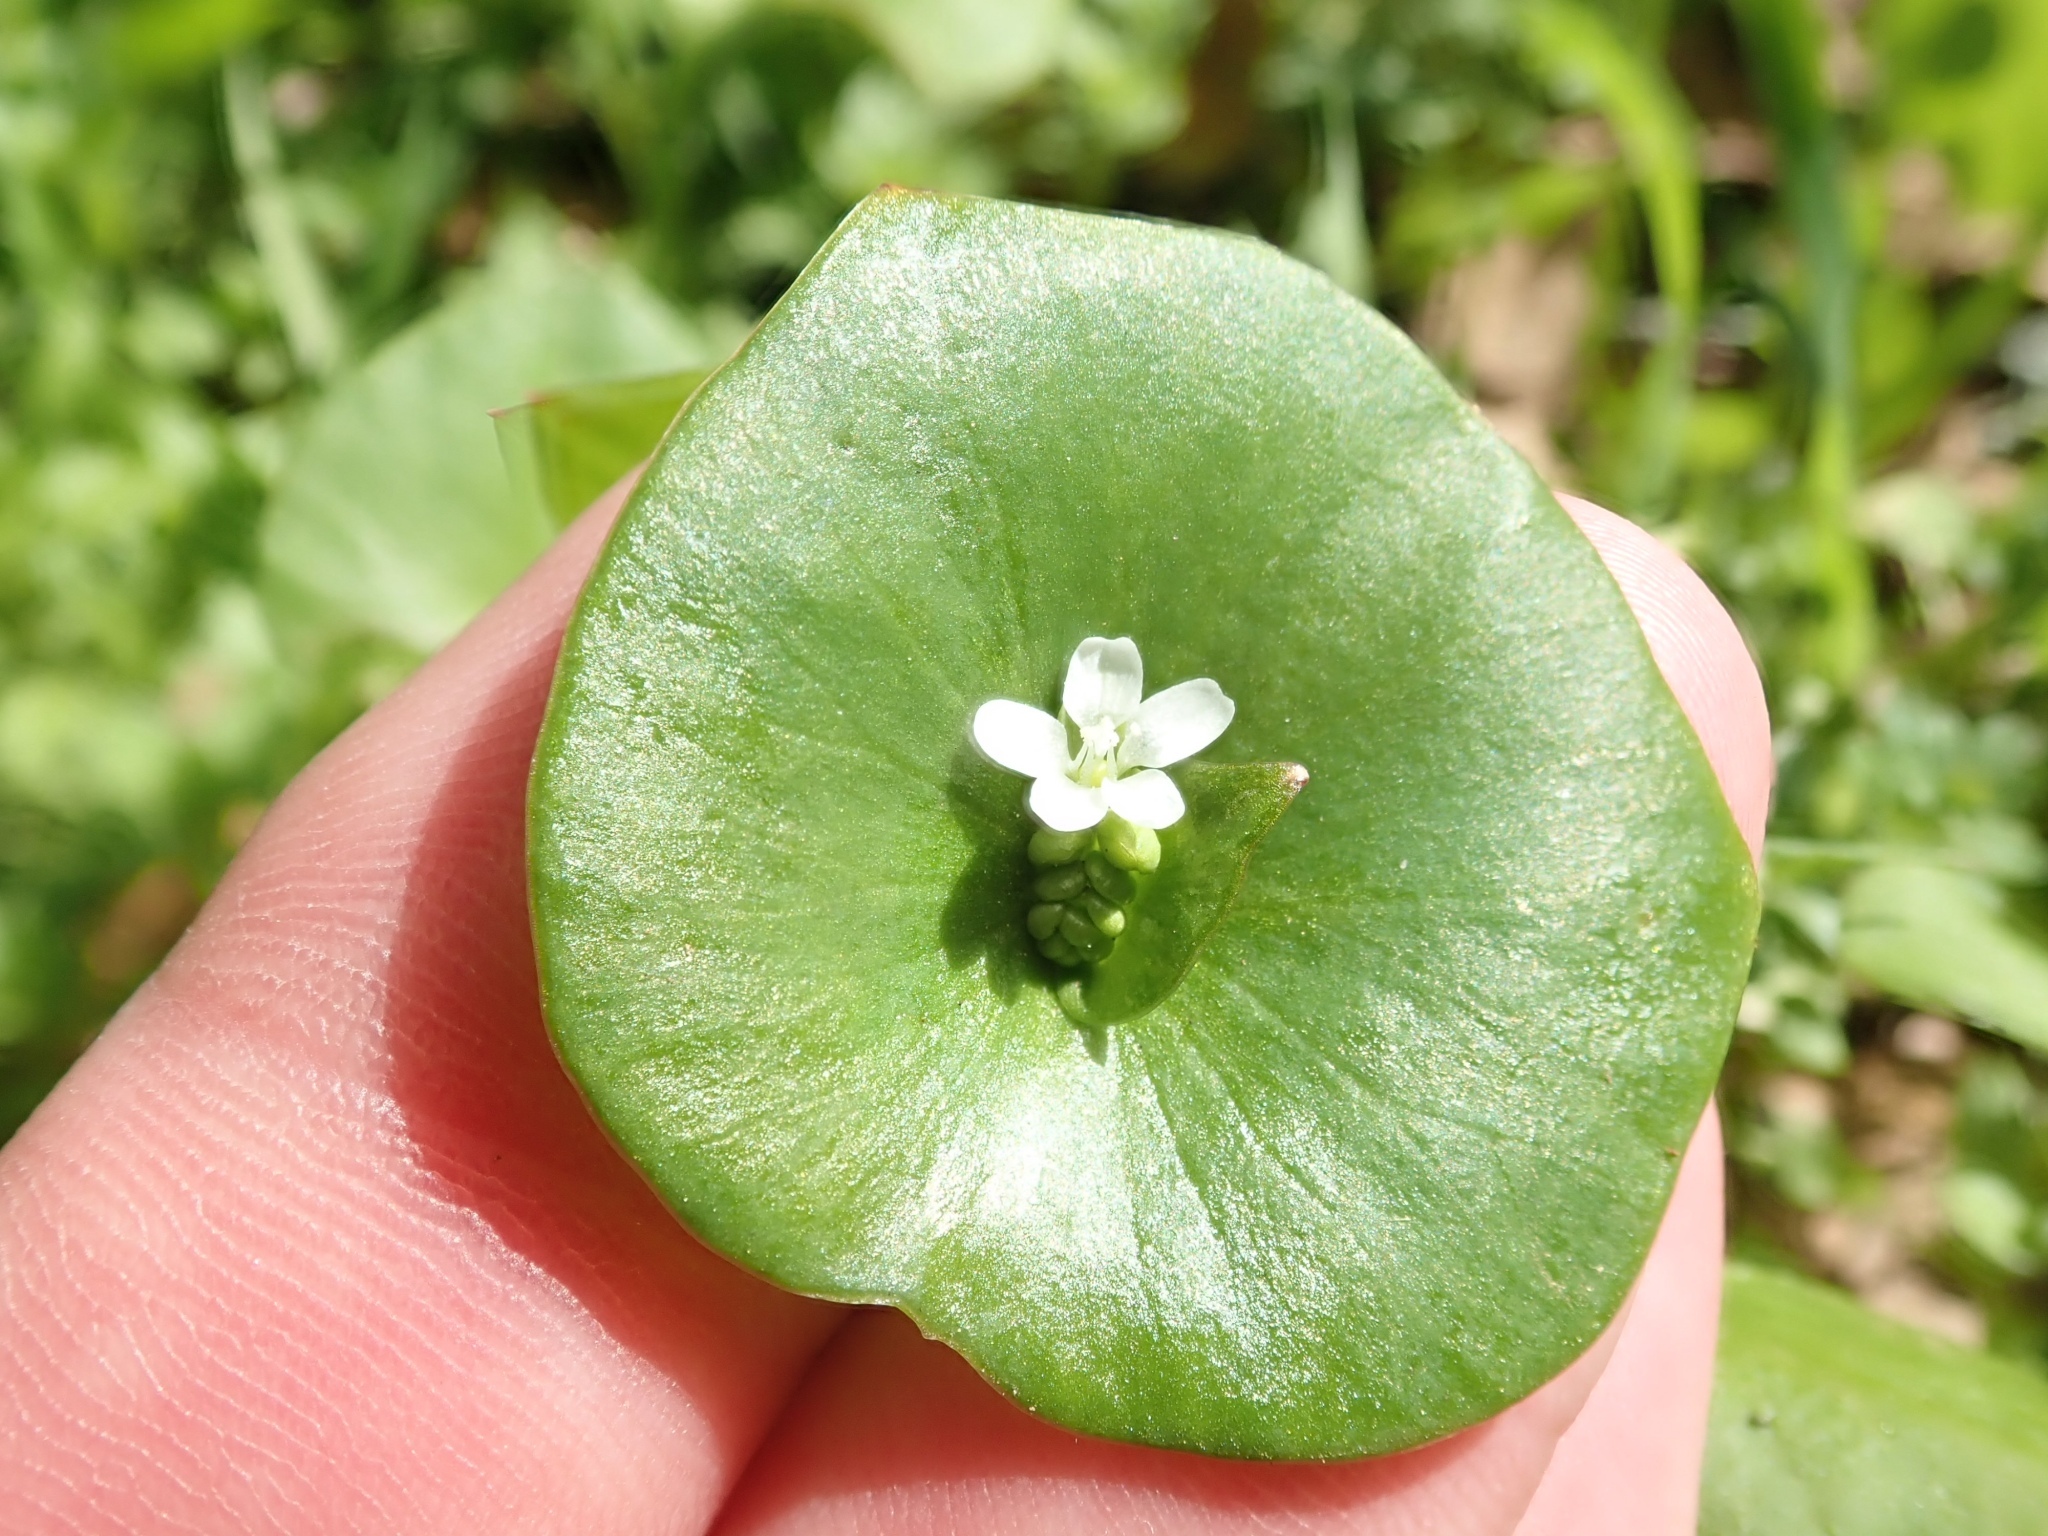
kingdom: Plantae
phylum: Tracheophyta
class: Magnoliopsida
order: Caryophyllales
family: Montiaceae
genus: Claytonia
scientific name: Claytonia perfoliata
